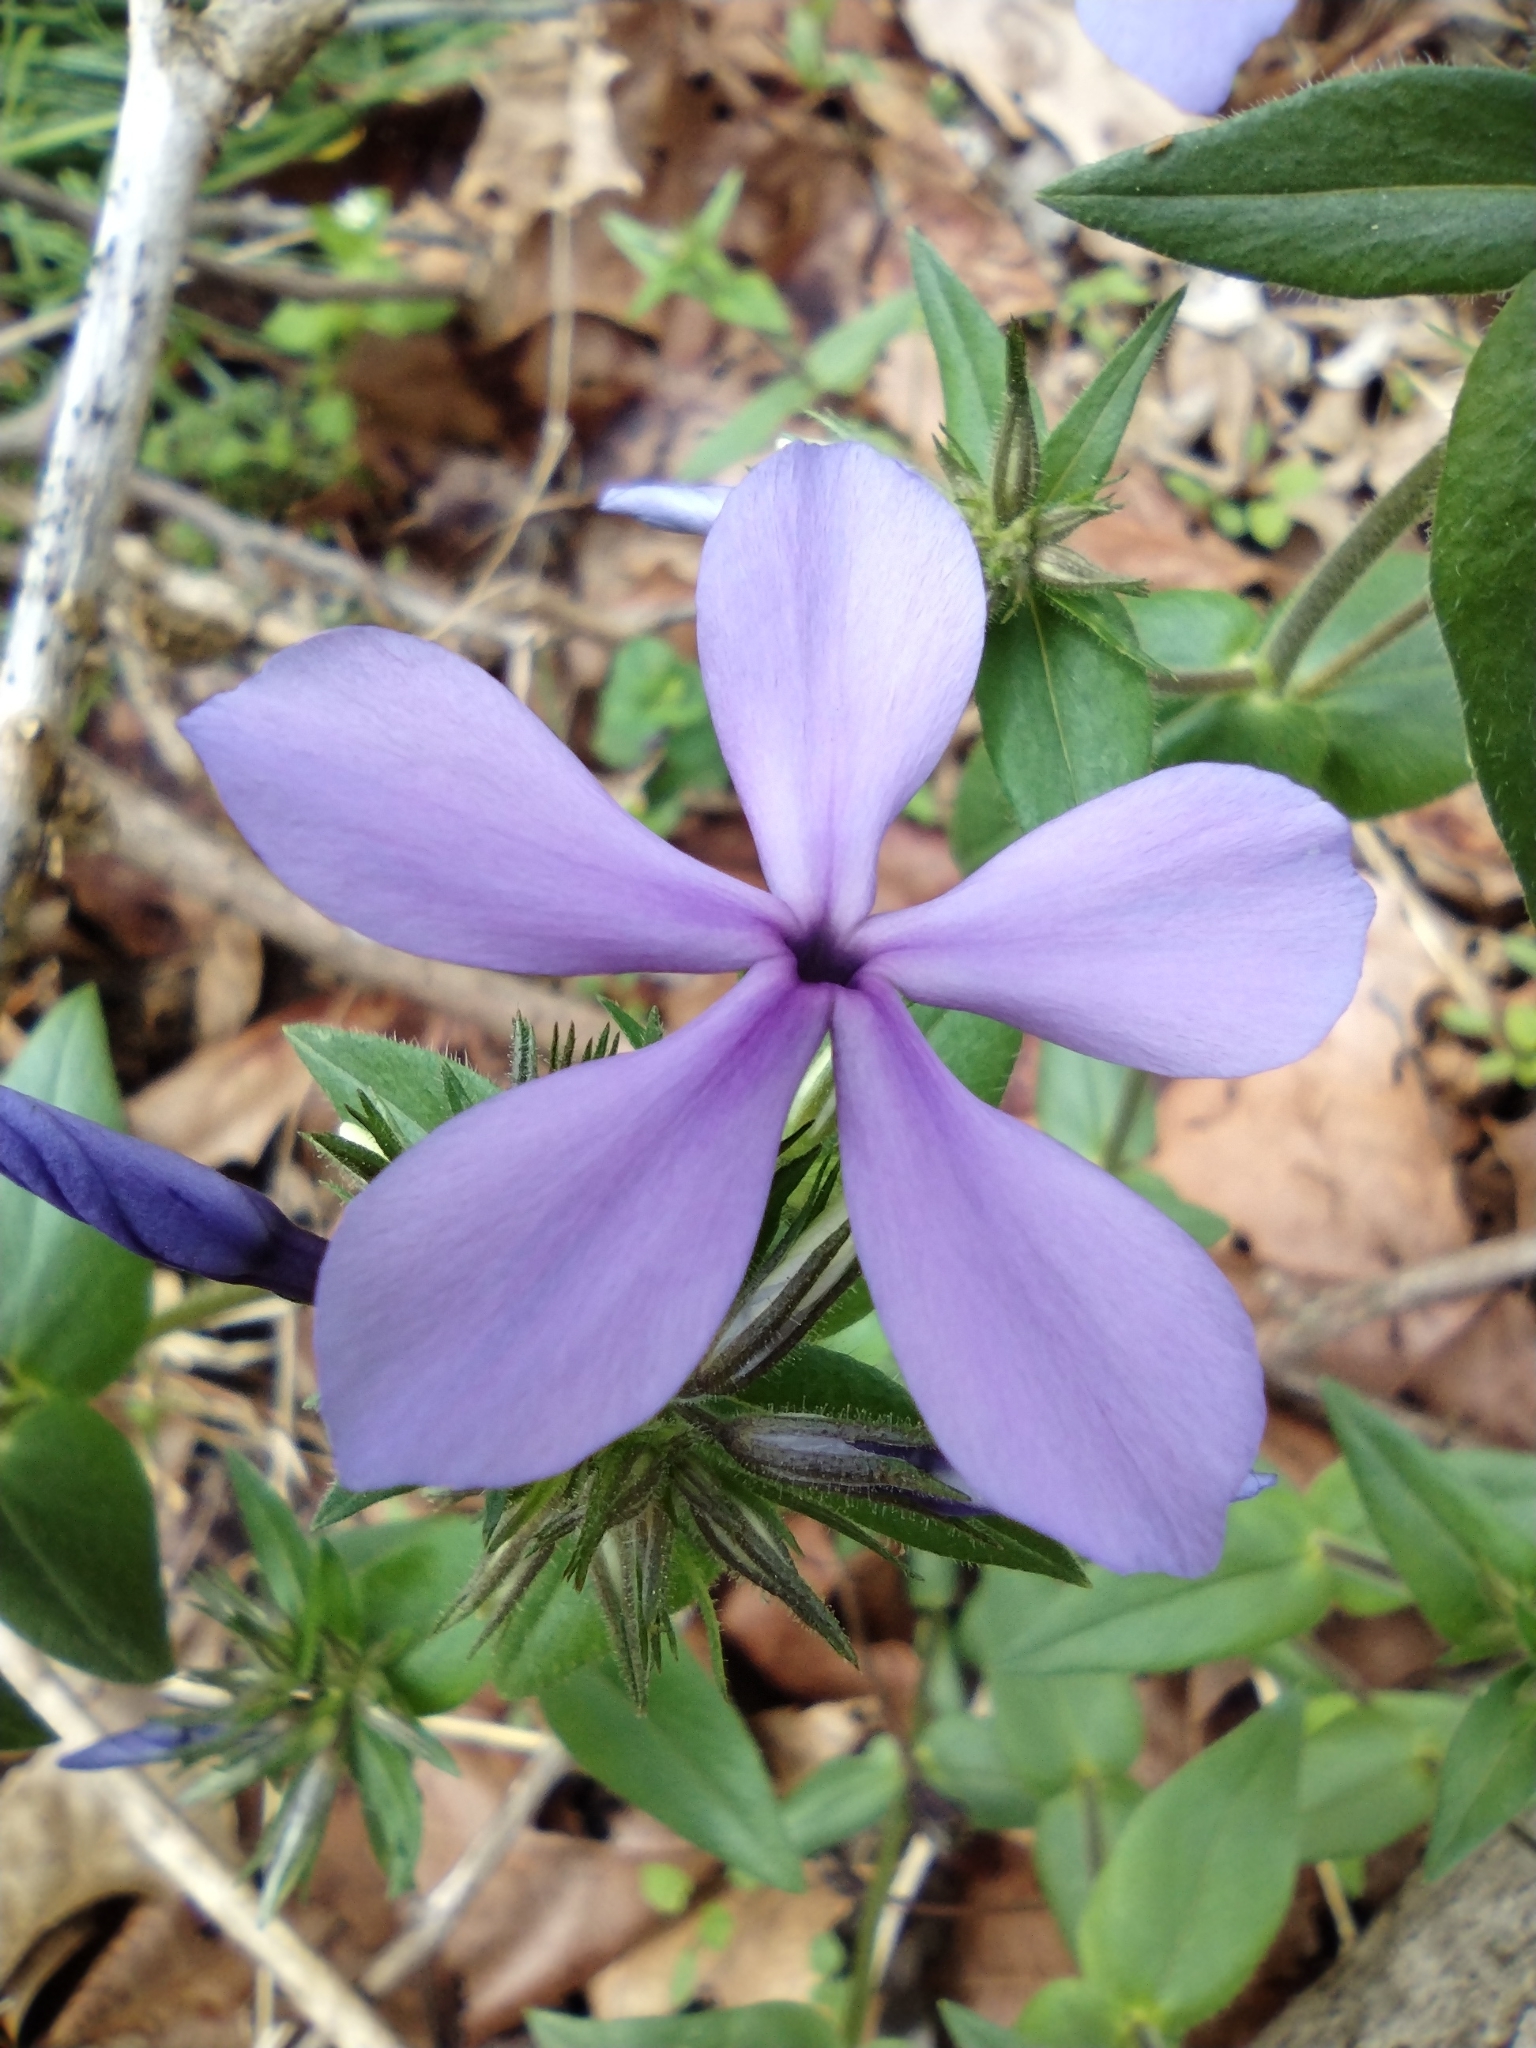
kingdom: Plantae
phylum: Tracheophyta
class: Magnoliopsida
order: Ericales
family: Polemoniaceae
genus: Phlox
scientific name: Phlox divaricata
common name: Blue phlox
